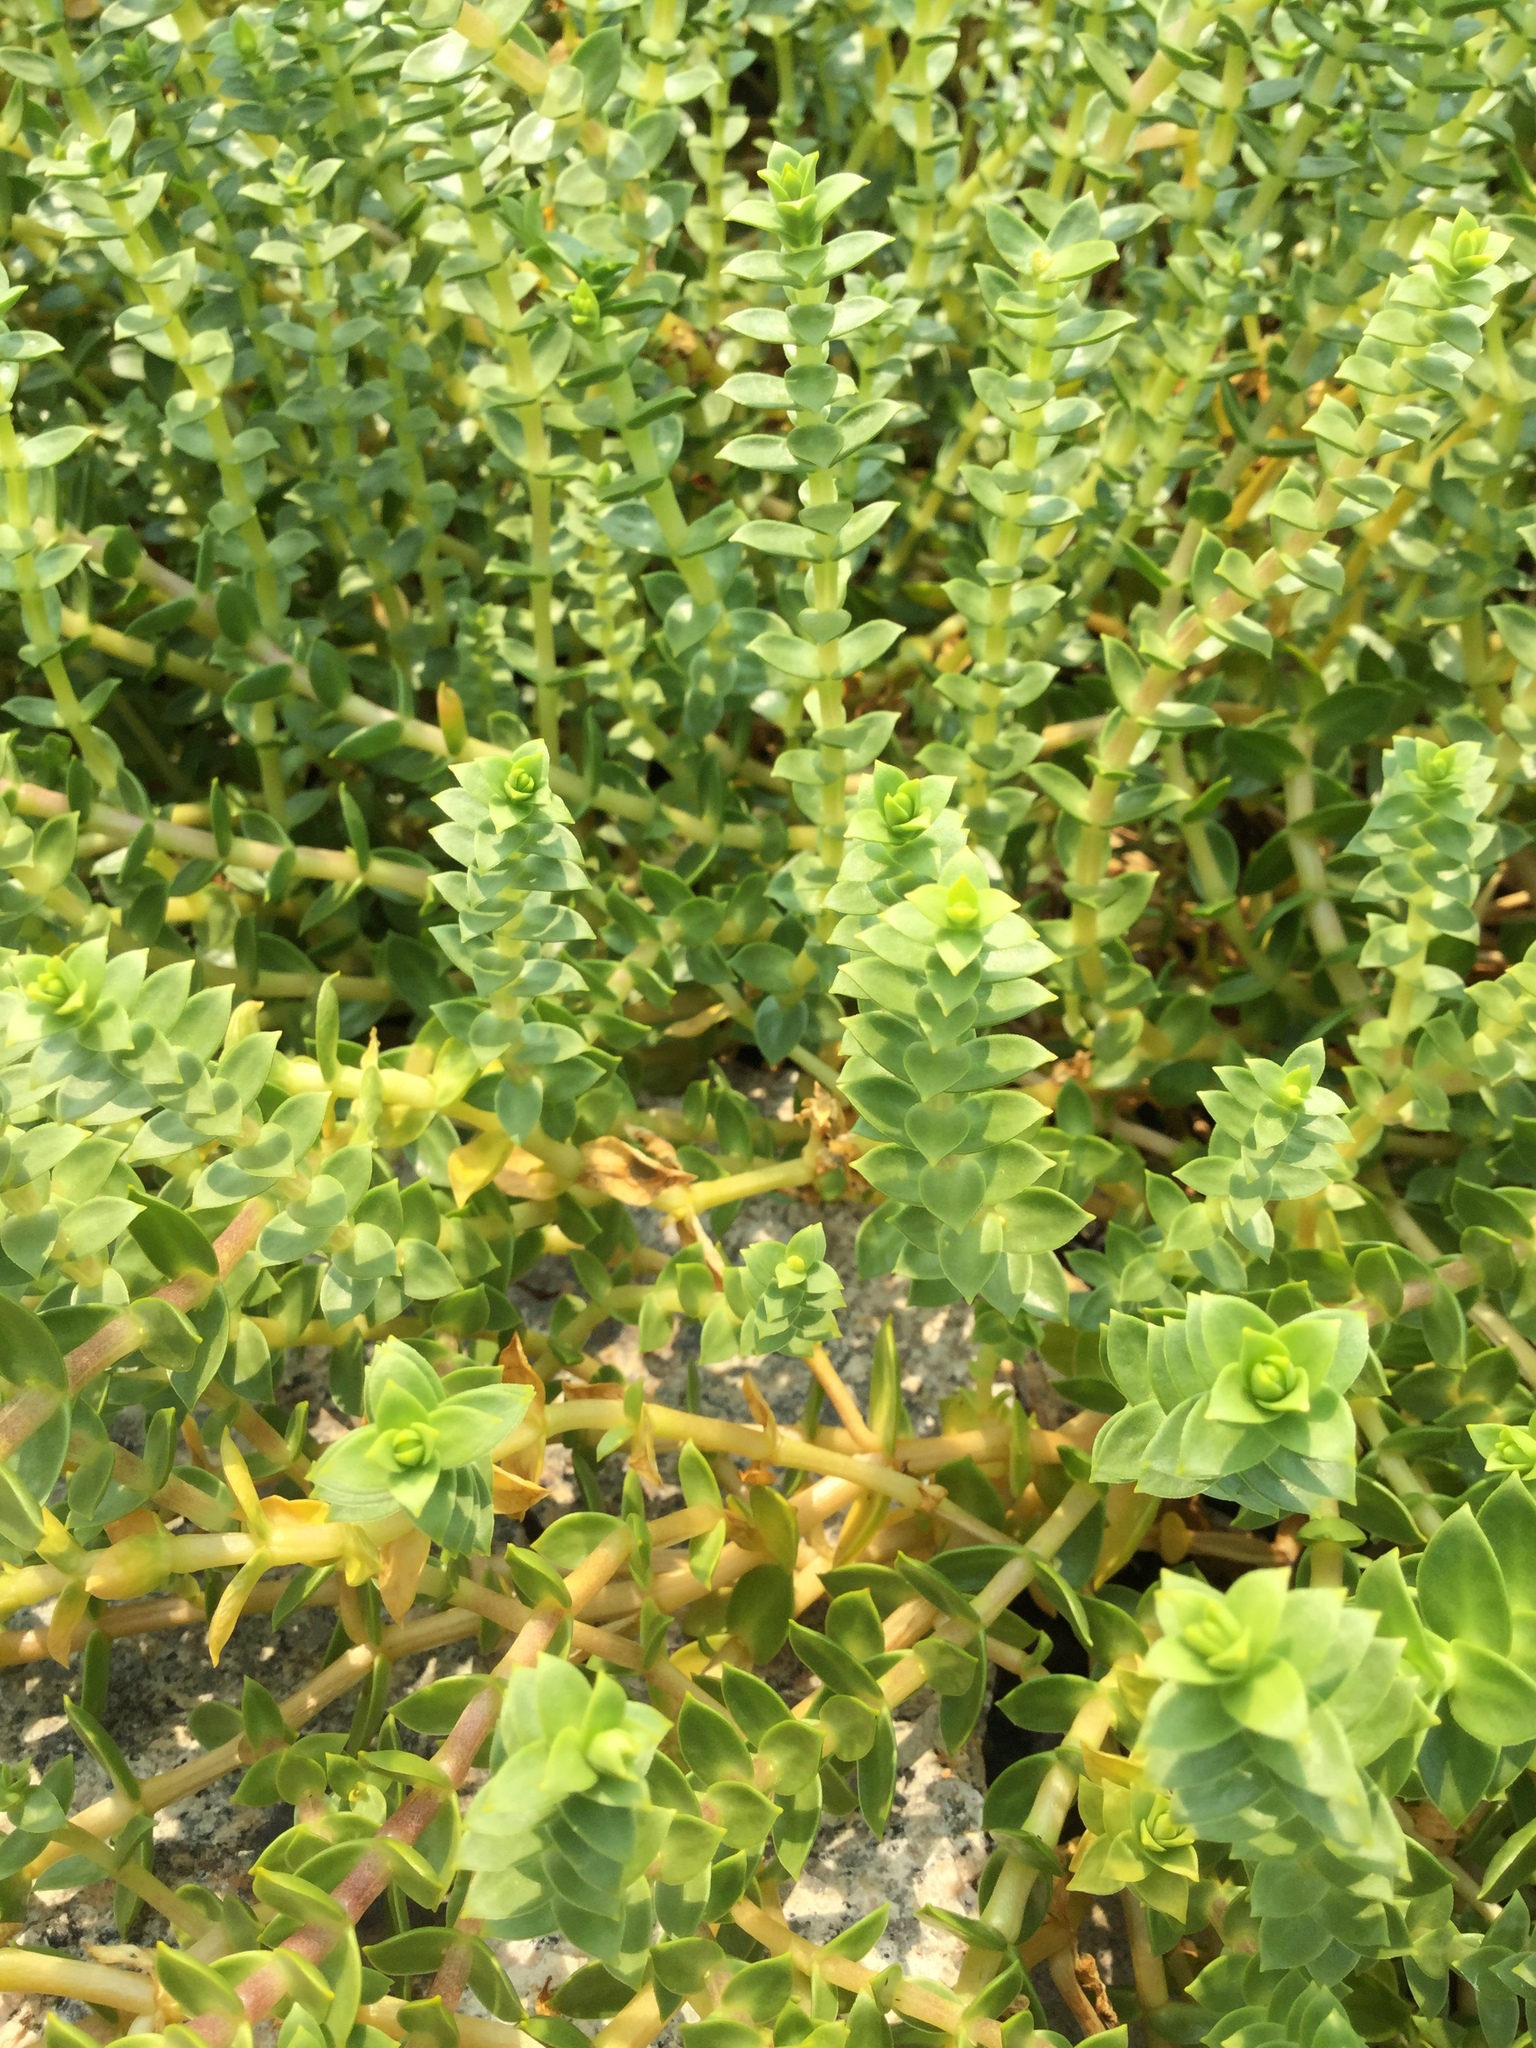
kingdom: Plantae
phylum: Tracheophyta
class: Magnoliopsida
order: Caryophyllales
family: Caryophyllaceae
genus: Honckenya
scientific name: Honckenya peploides
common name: Sea sandwort
